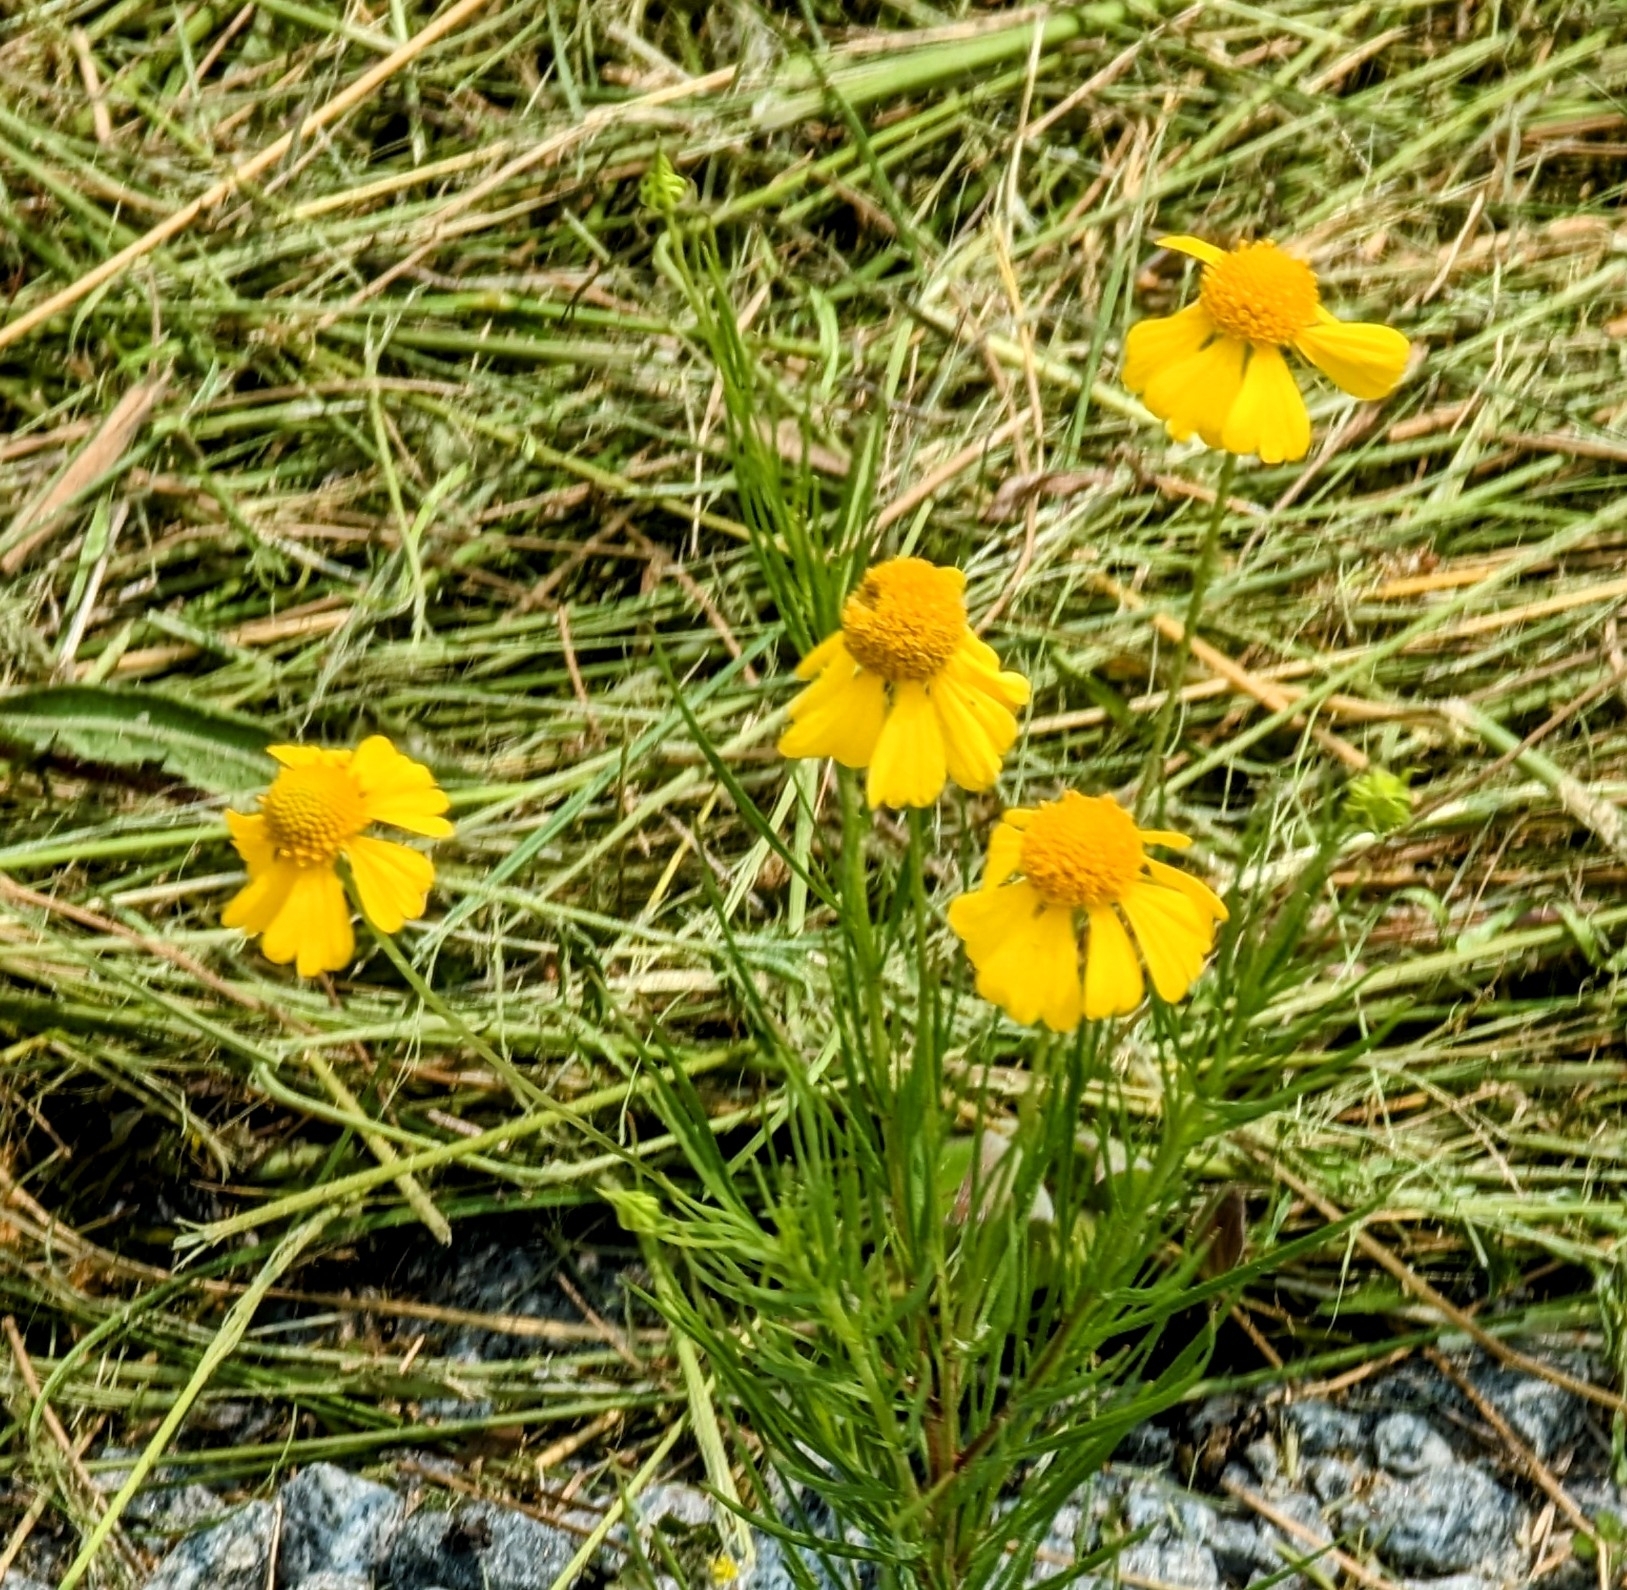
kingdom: Plantae
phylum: Tracheophyta
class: Magnoliopsida
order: Asterales
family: Asteraceae
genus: Helenium
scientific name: Helenium amarum
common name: Bitter sneezeweed
